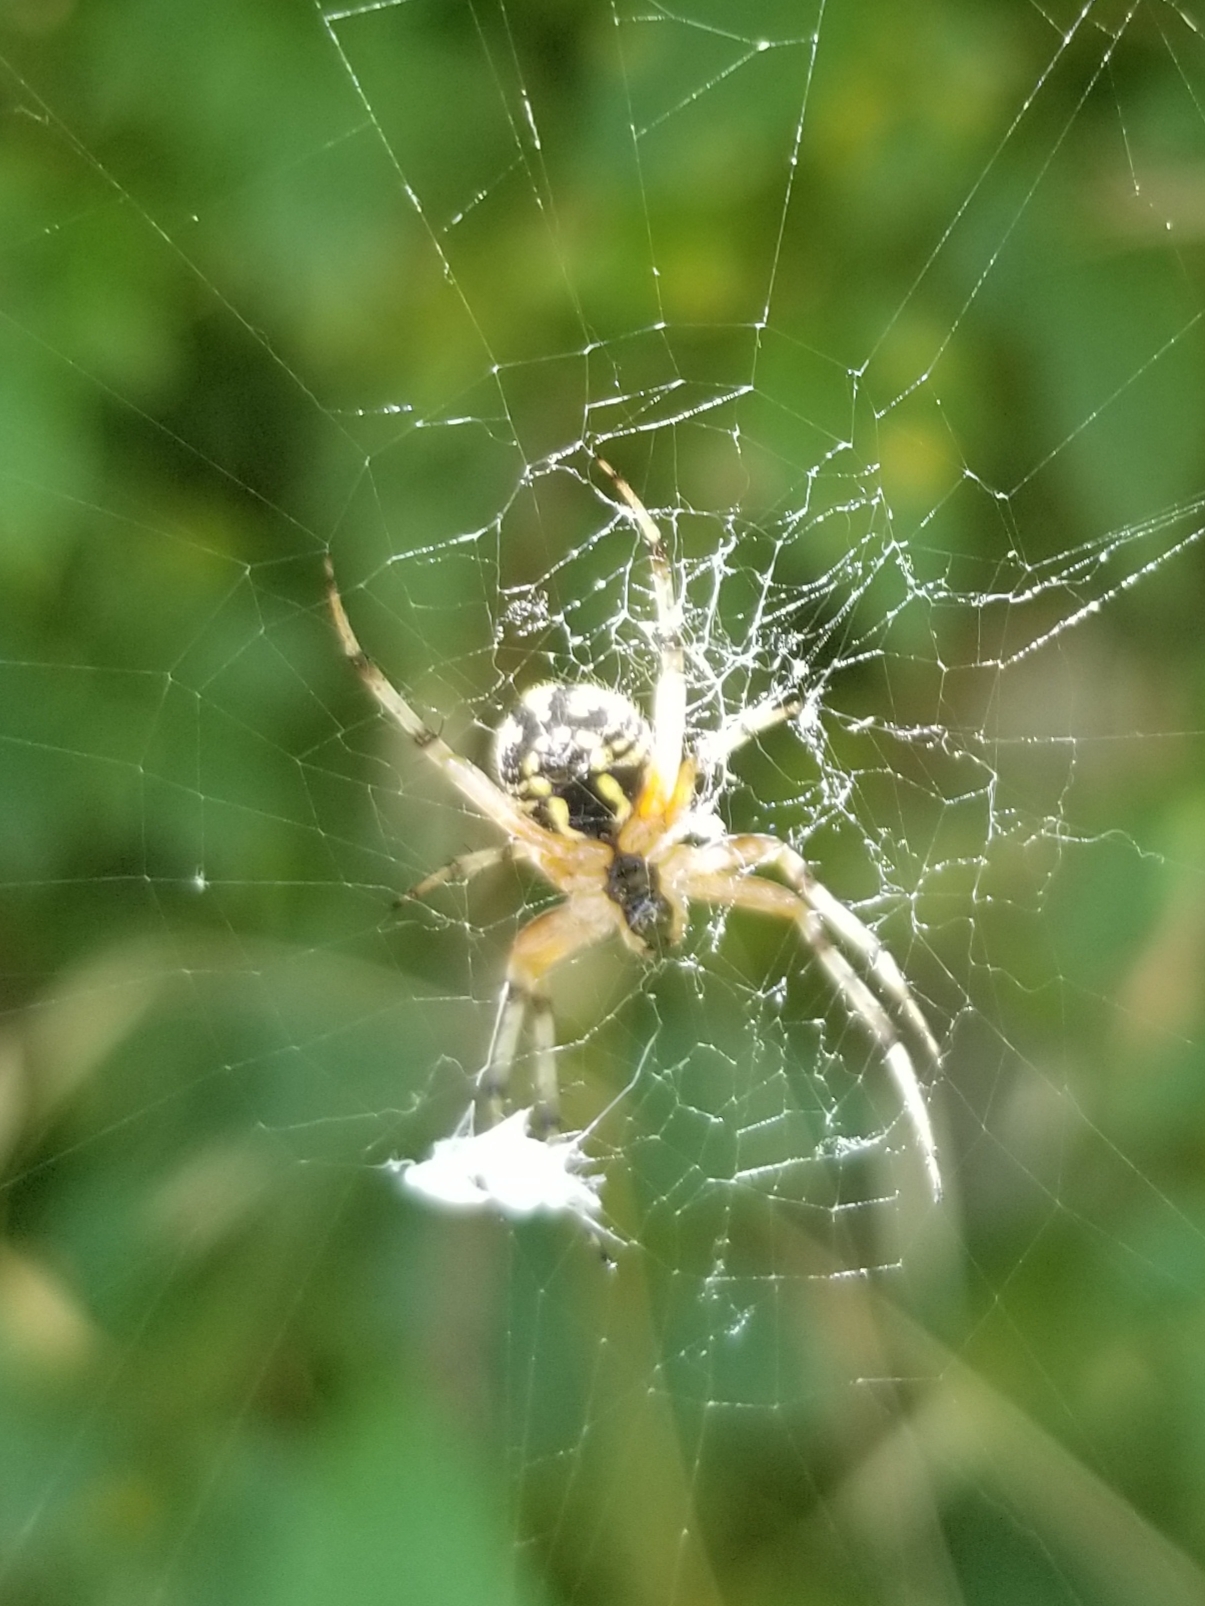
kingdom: Animalia
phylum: Arthropoda
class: Arachnida
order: Araneae
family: Araneidae
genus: Neoscona
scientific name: Neoscona adianta
